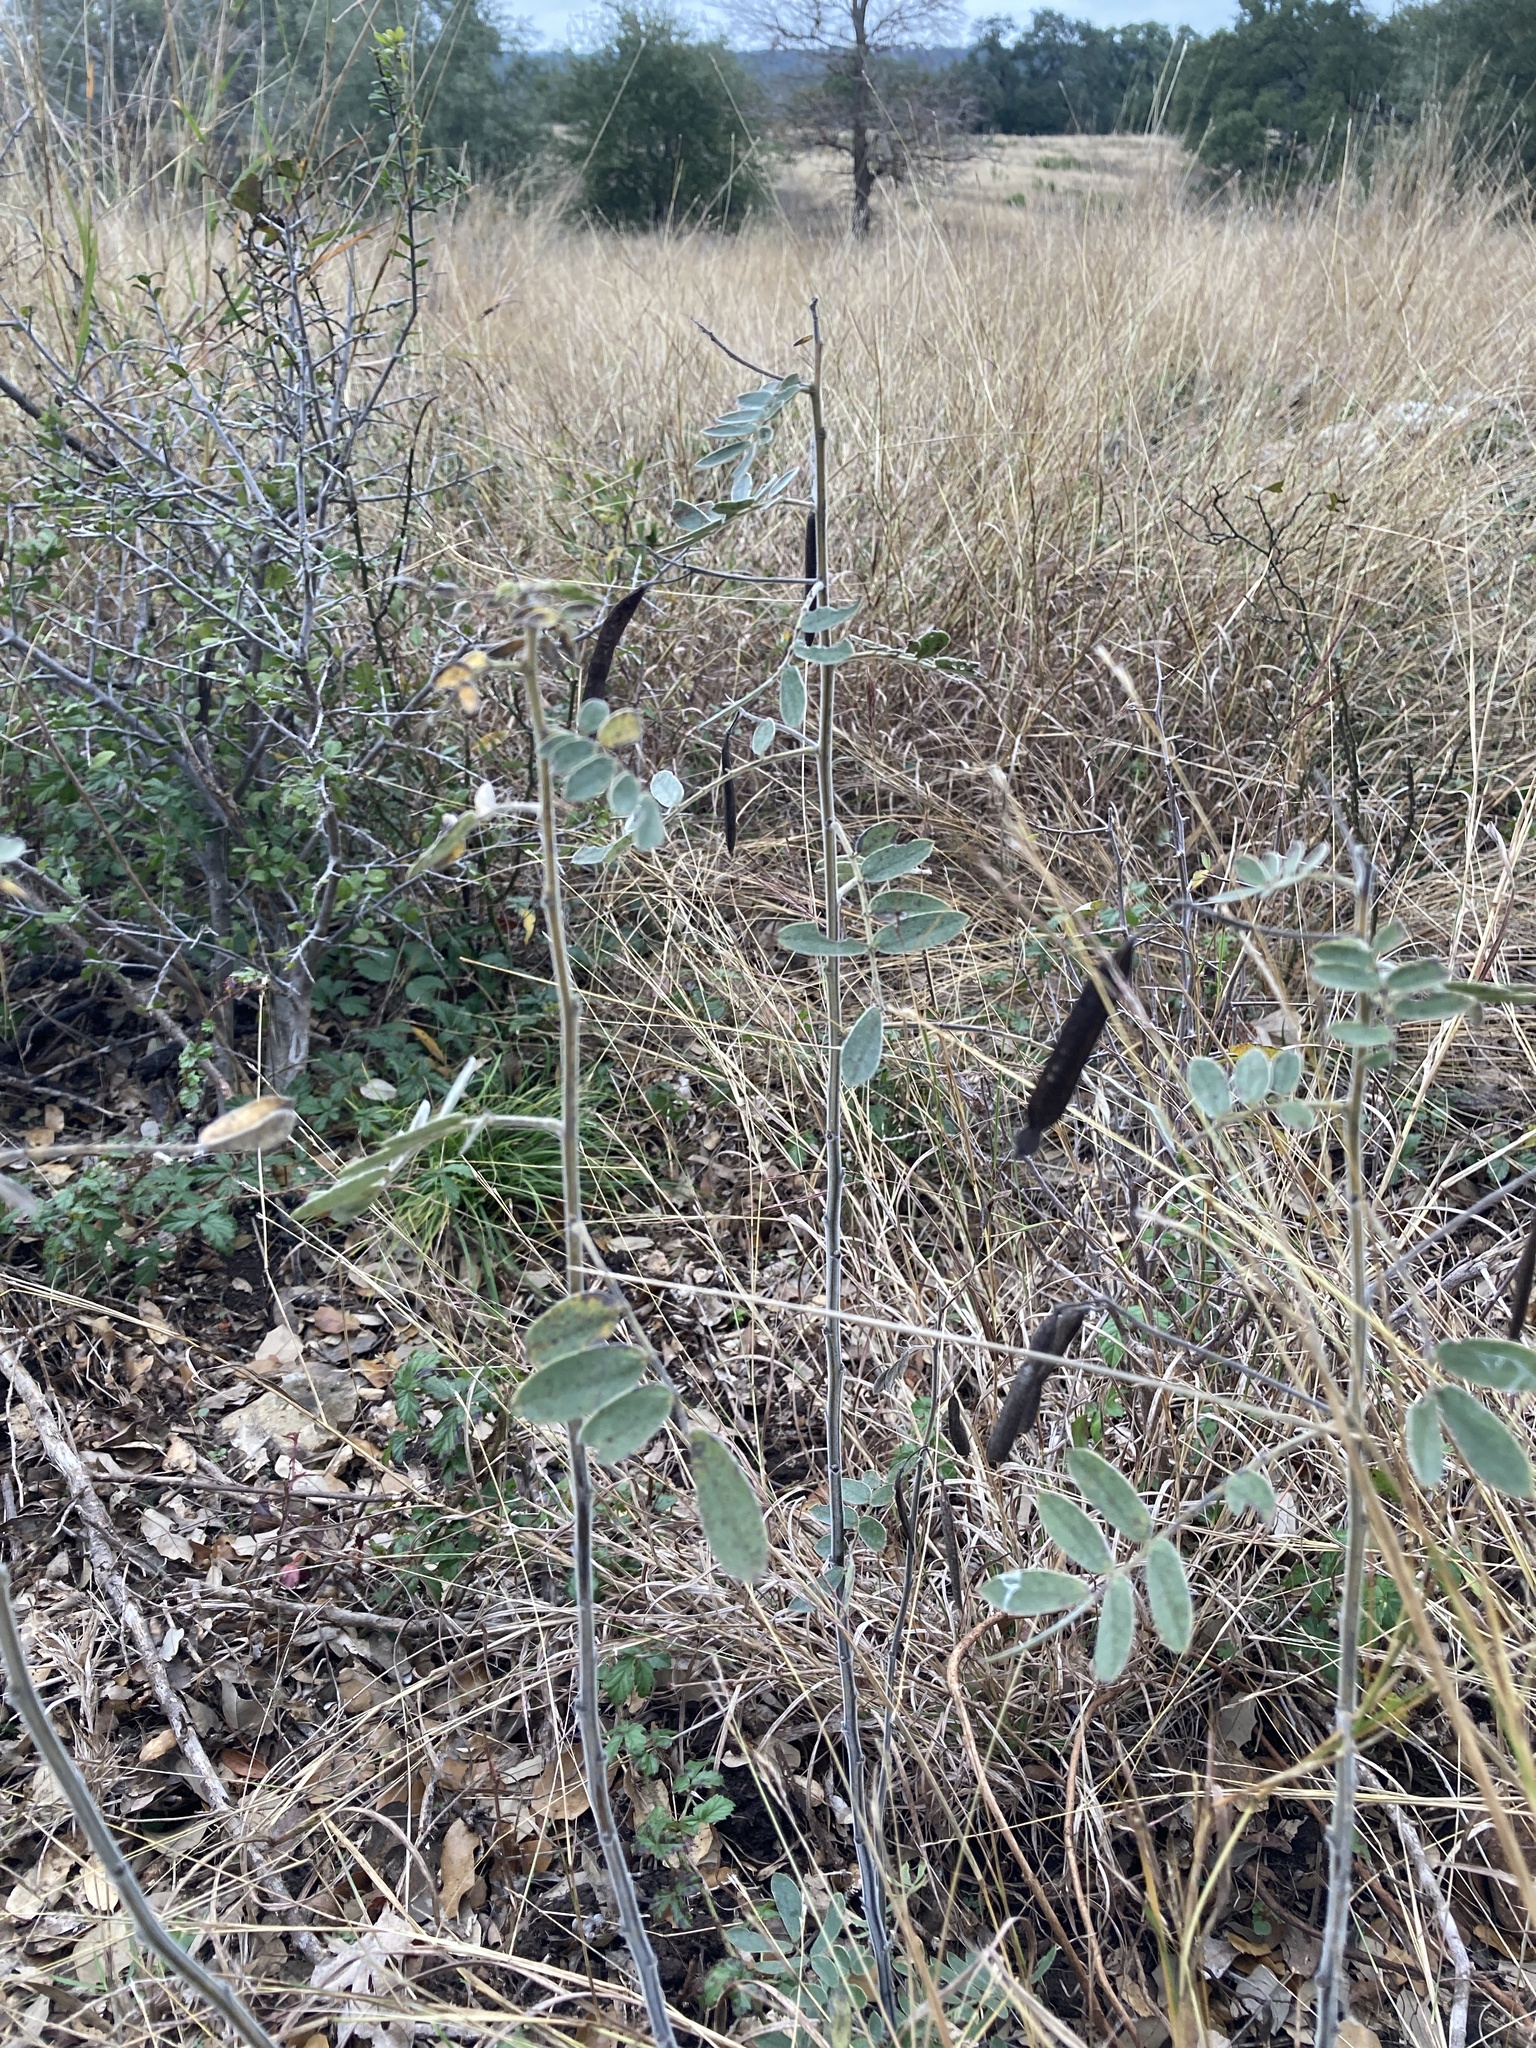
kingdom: Plantae
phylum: Tracheophyta
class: Magnoliopsida
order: Fabales
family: Fabaceae
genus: Senna
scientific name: Senna lindheimeriana
